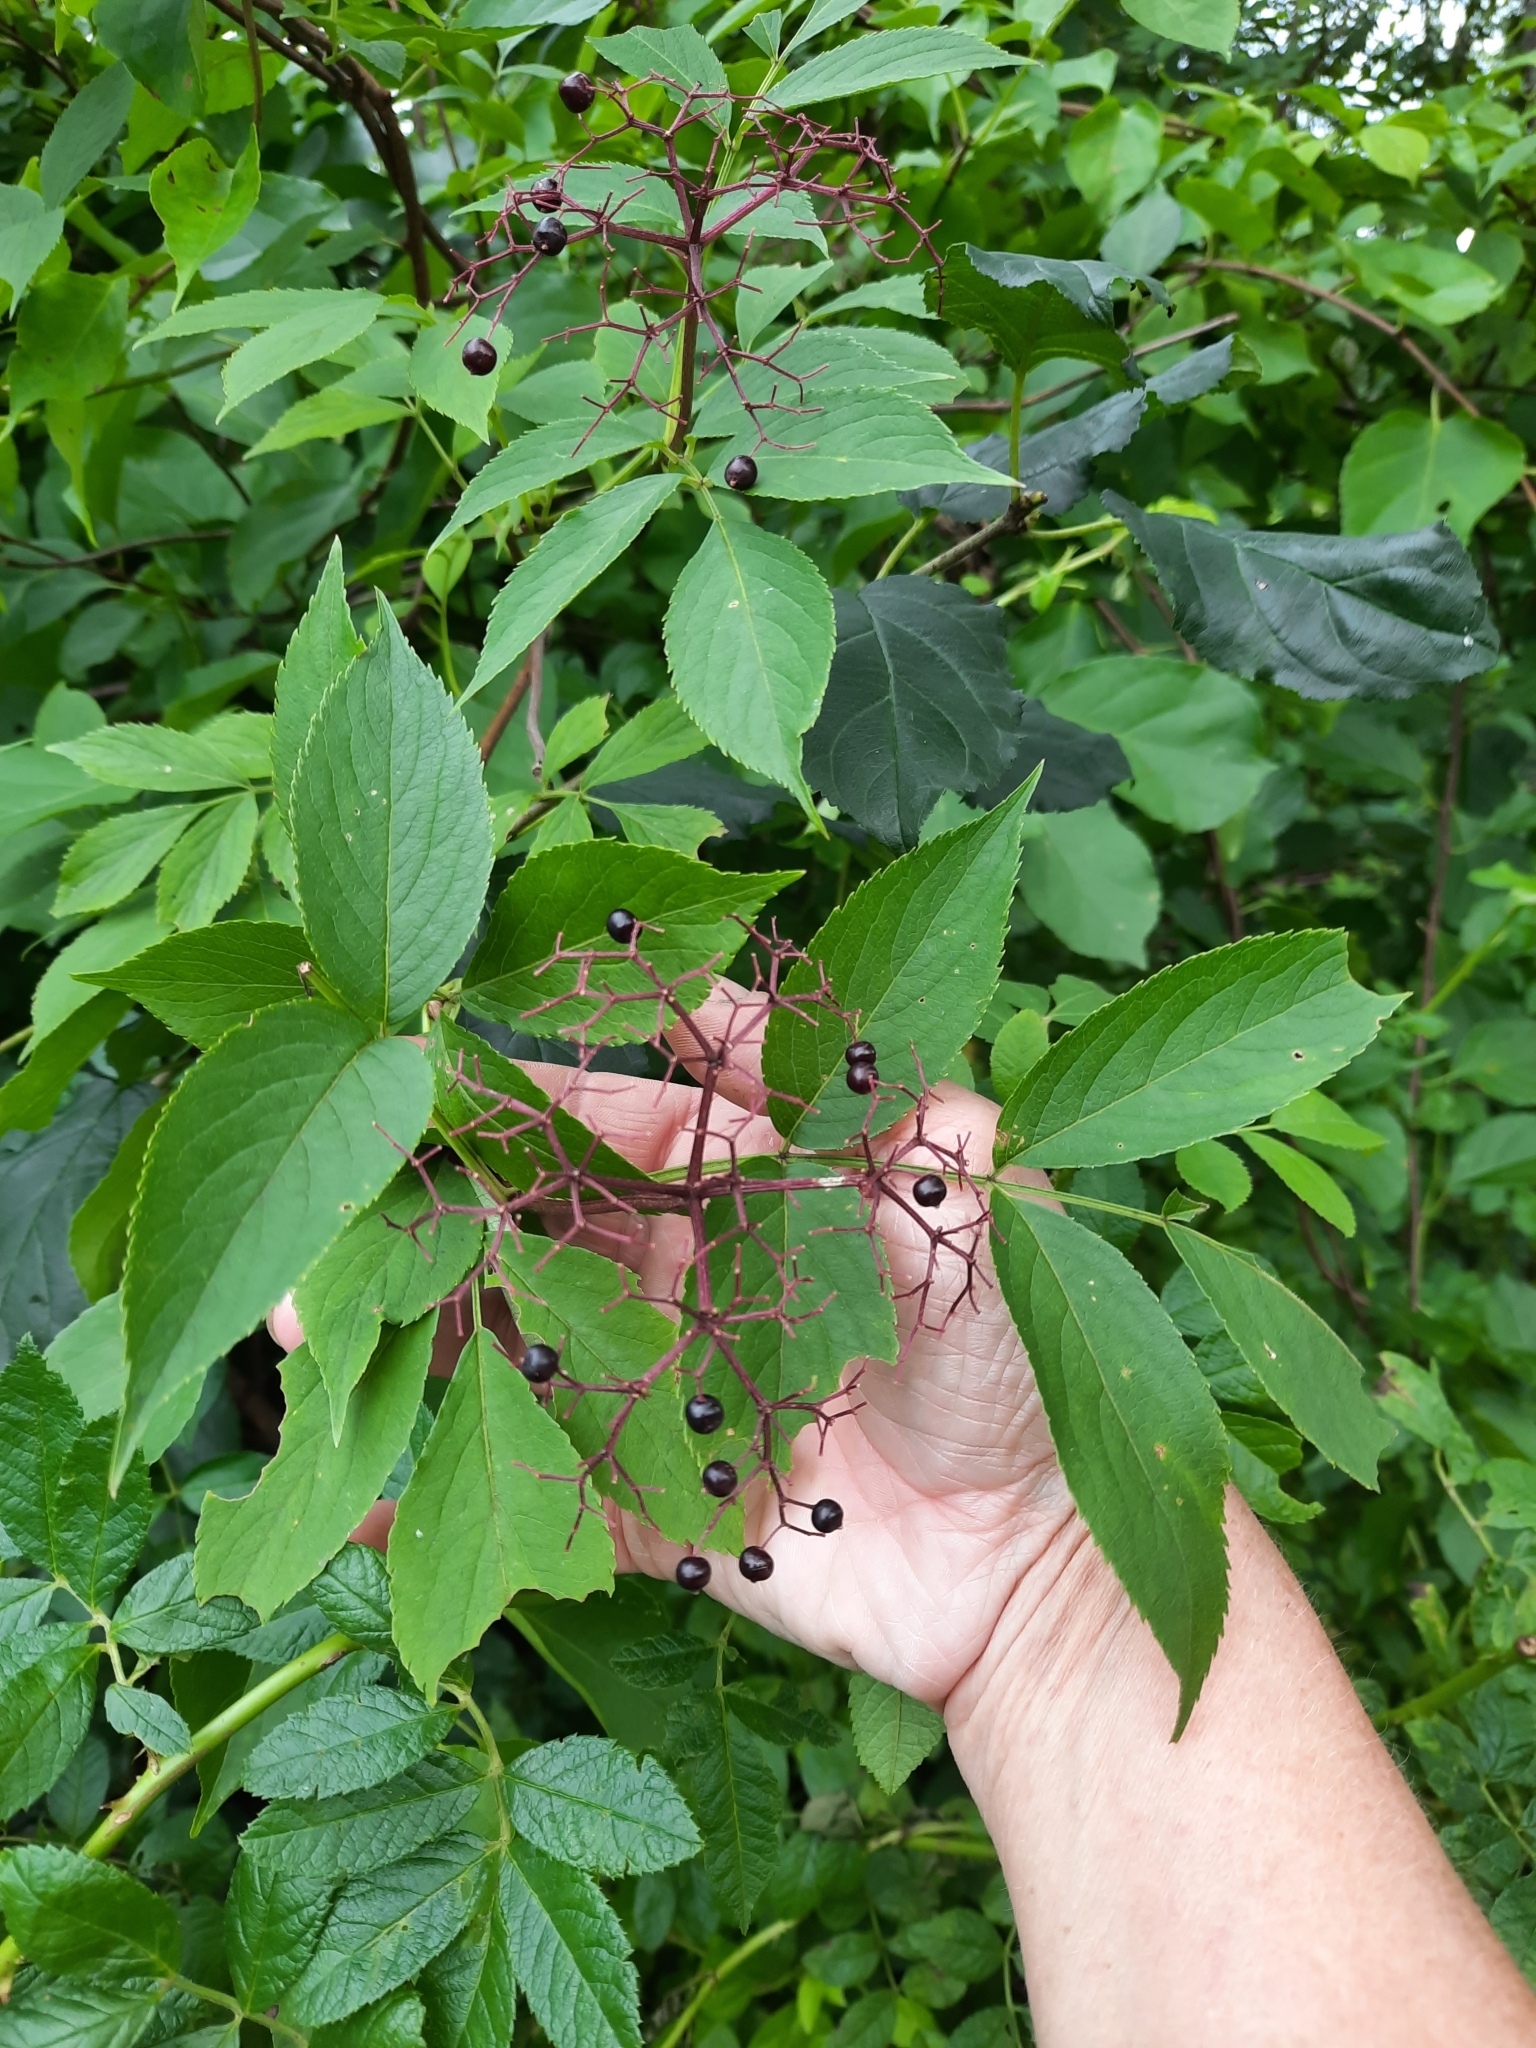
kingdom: Plantae
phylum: Tracheophyta
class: Magnoliopsida
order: Dipsacales
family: Viburnaceae
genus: Sambucus
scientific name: Sambucus canadensis
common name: American elder
